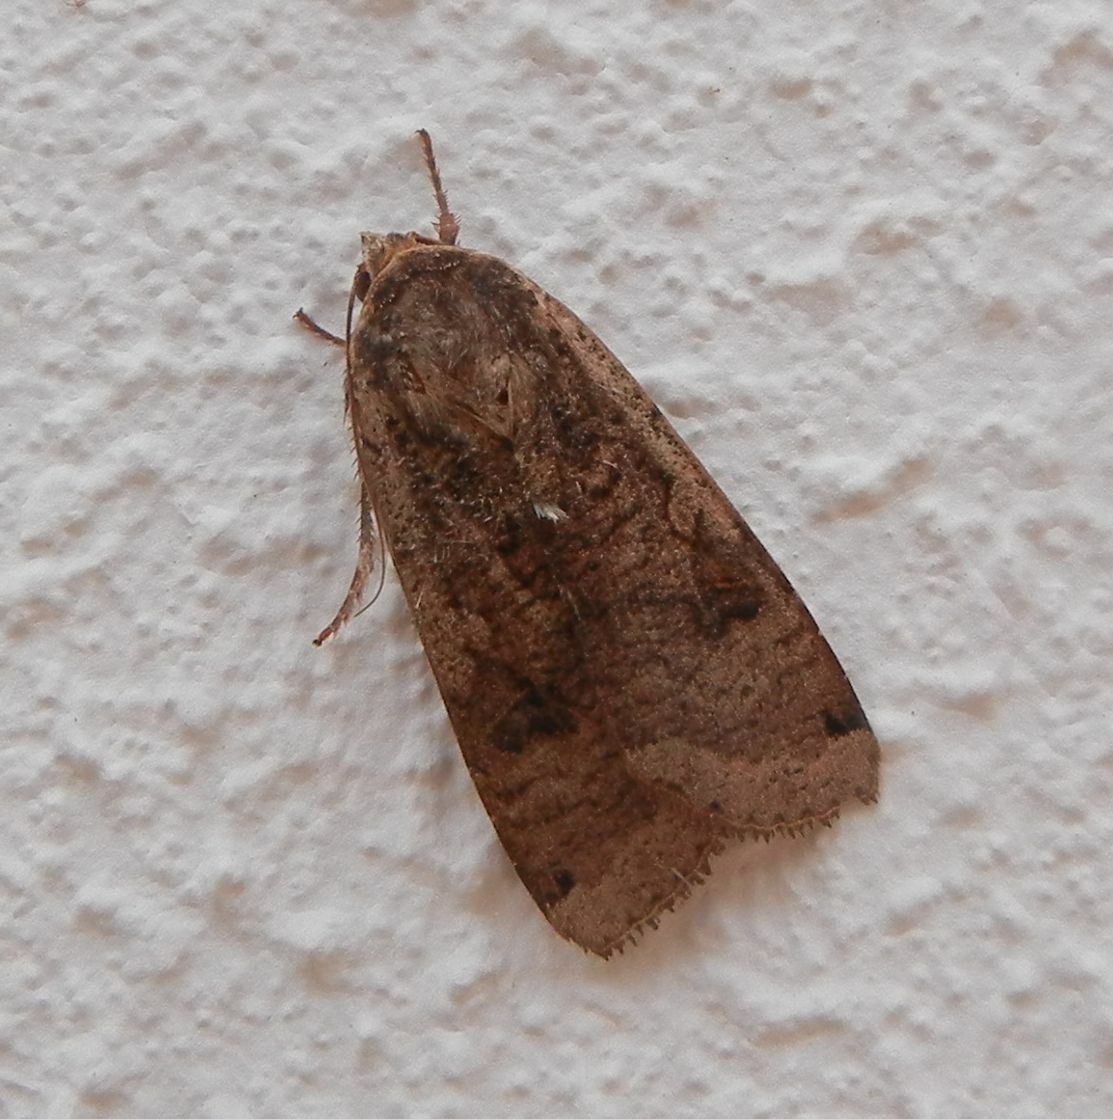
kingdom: Animalia
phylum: Arthropoda
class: Insecta
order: Lepidoptera
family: Noctuidae
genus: Noctua
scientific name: Noctua pronuba
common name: Large yellow underwing
